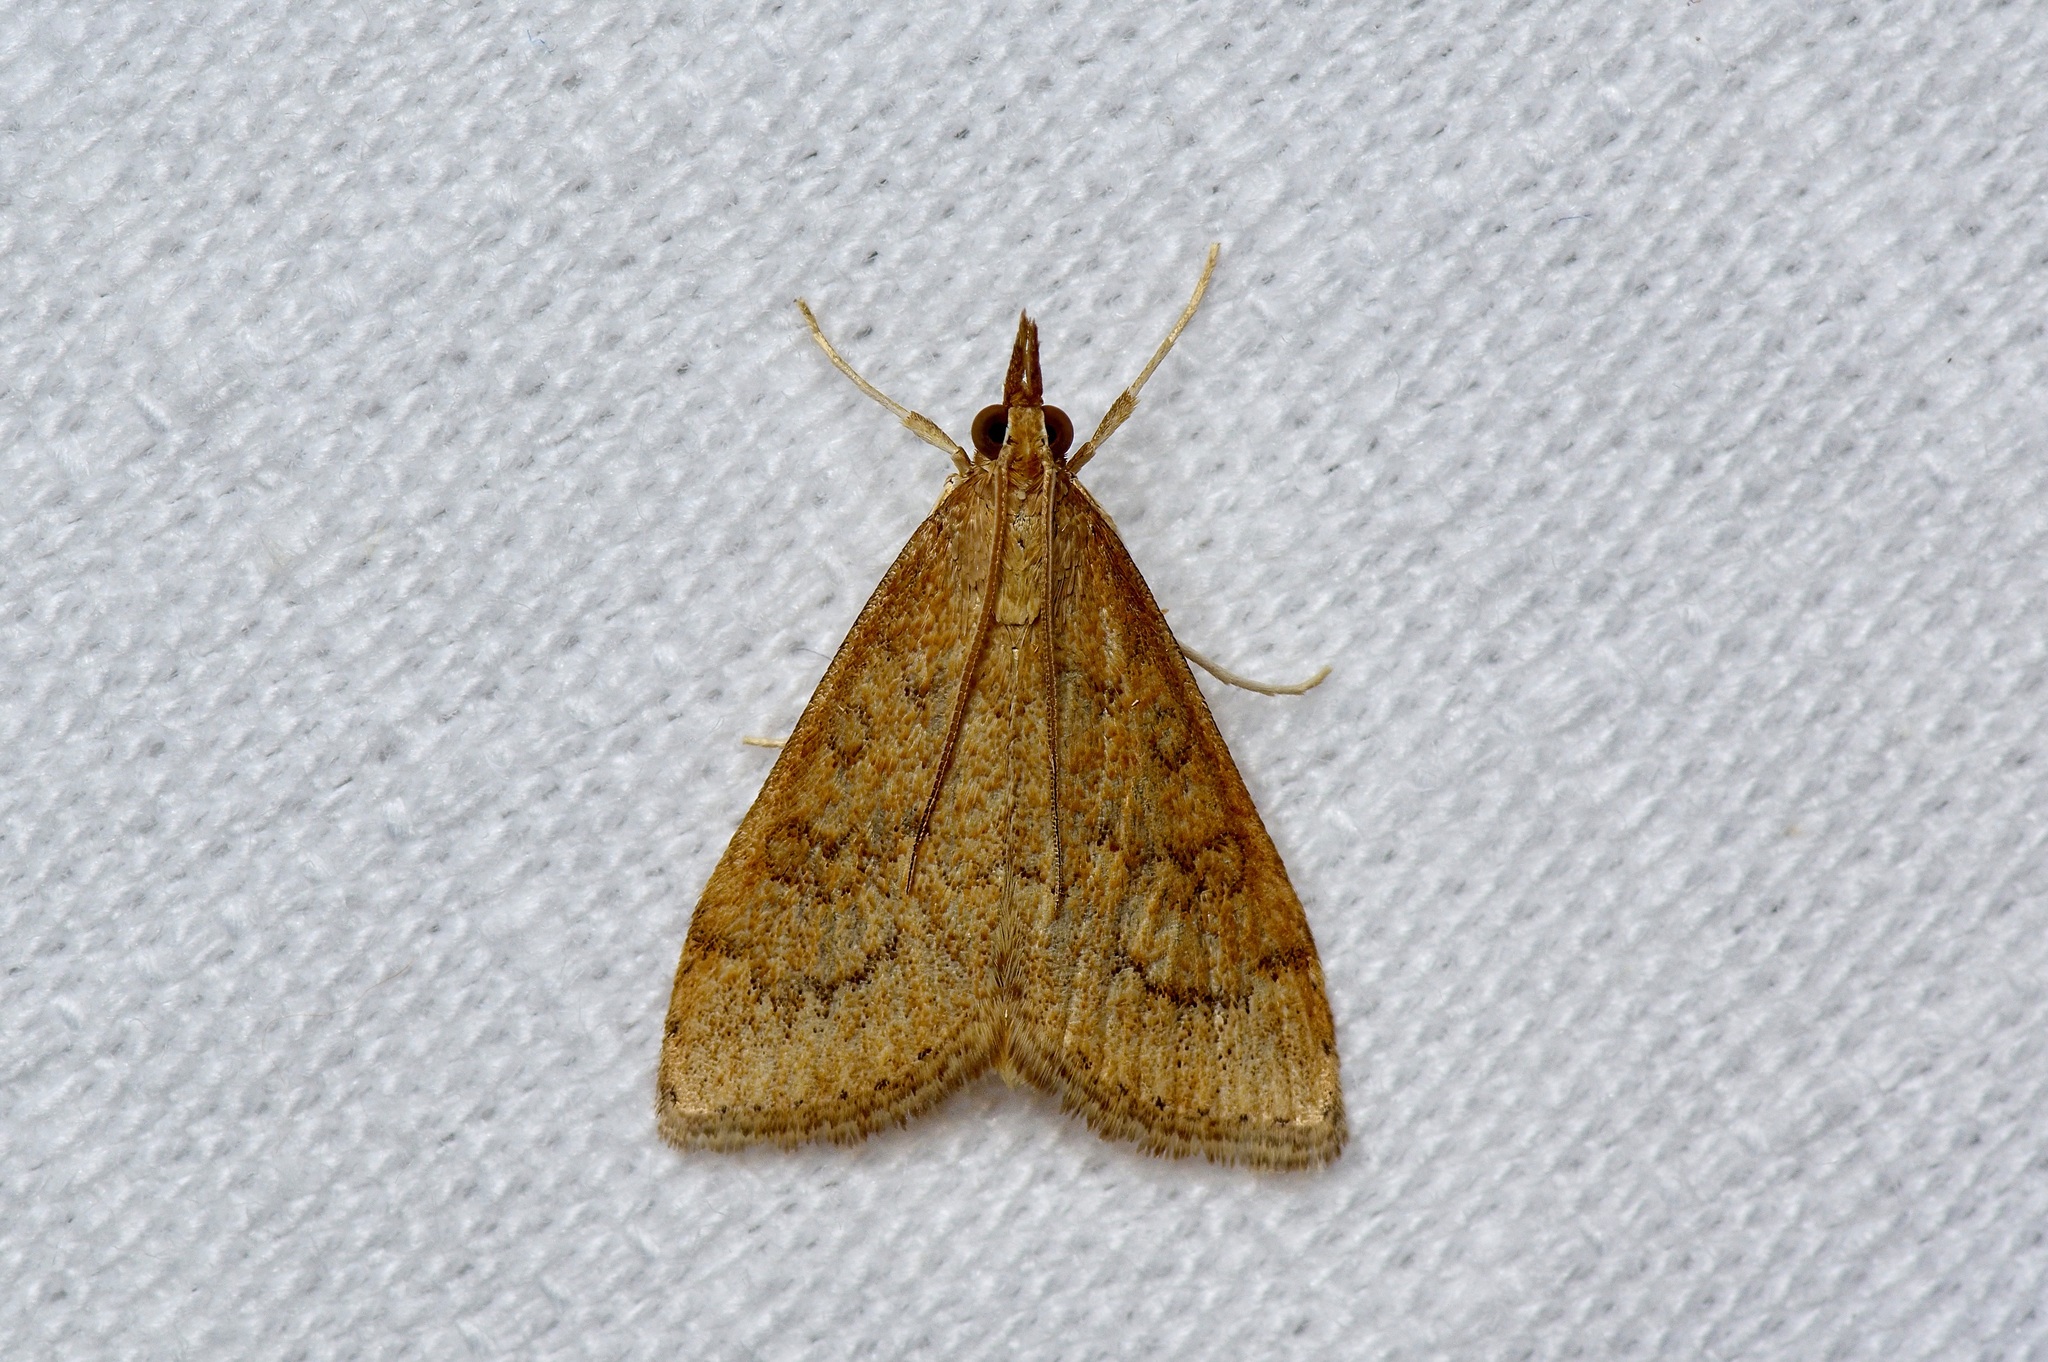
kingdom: Animalia
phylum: Arthropoda
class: Insecta
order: Lepidoptera
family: Crambidae
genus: Udea
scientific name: Udea rubigalis
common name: Celery leaftier moth
